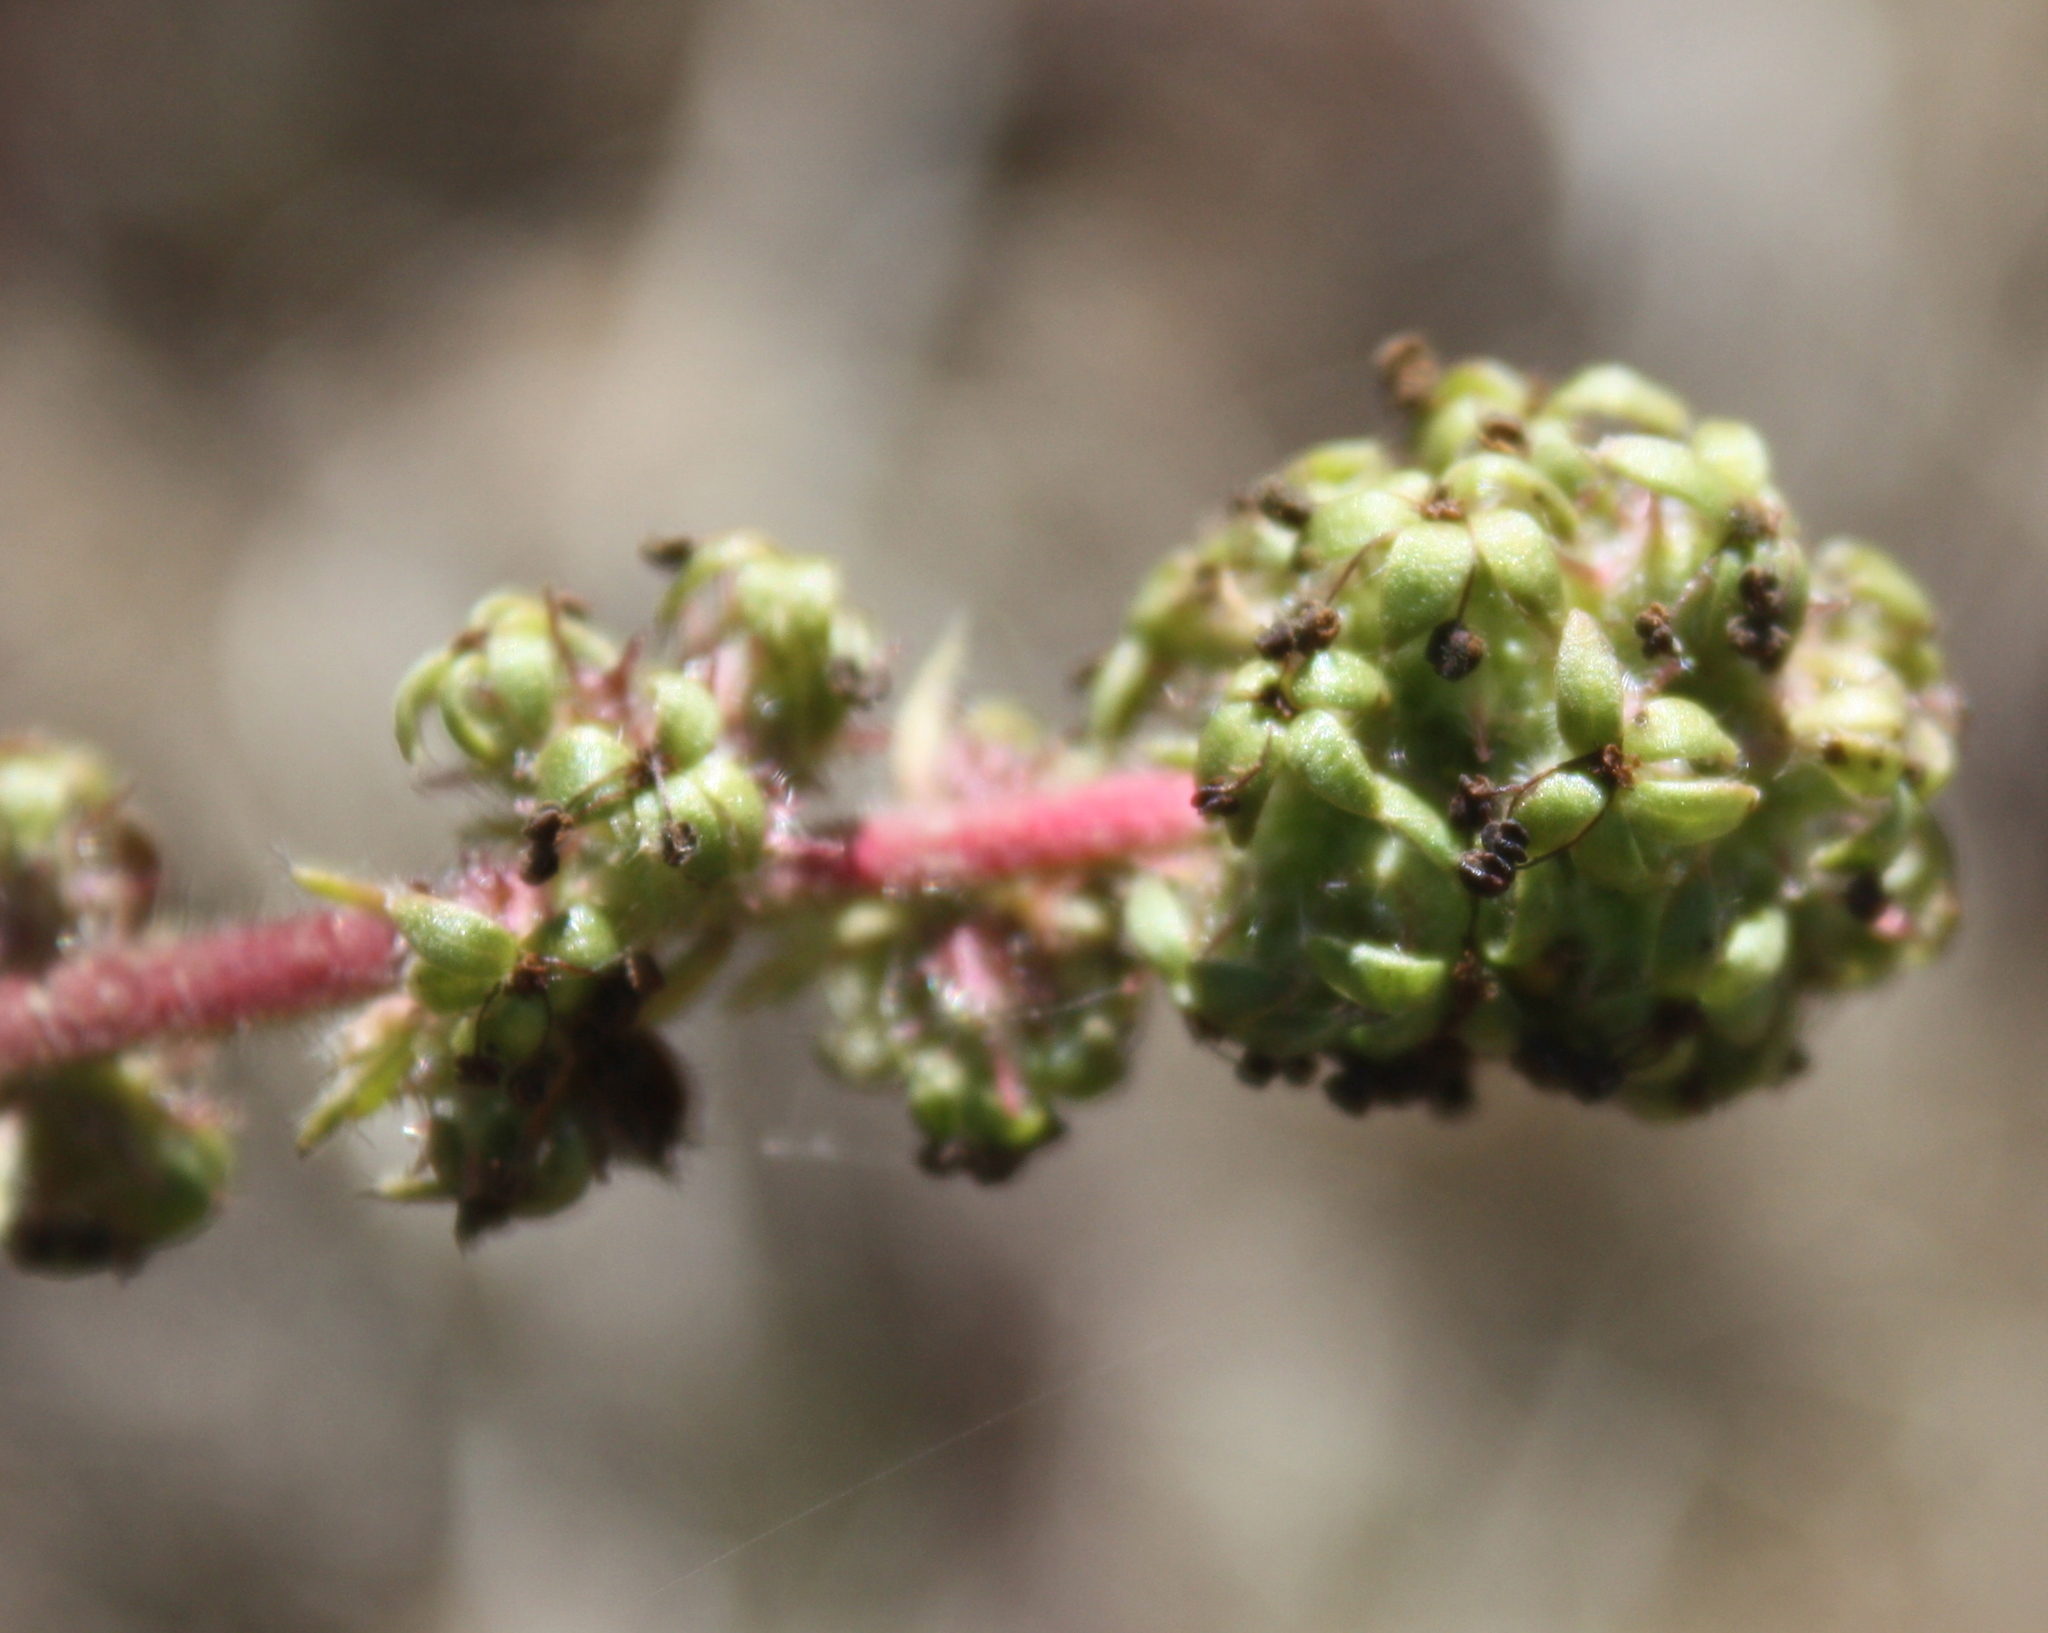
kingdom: Plantae
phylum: Tracheophyta
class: Magnoliopsida
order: Rosales
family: Rosaceae
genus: Acaena
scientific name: Acaena pinnatifida
